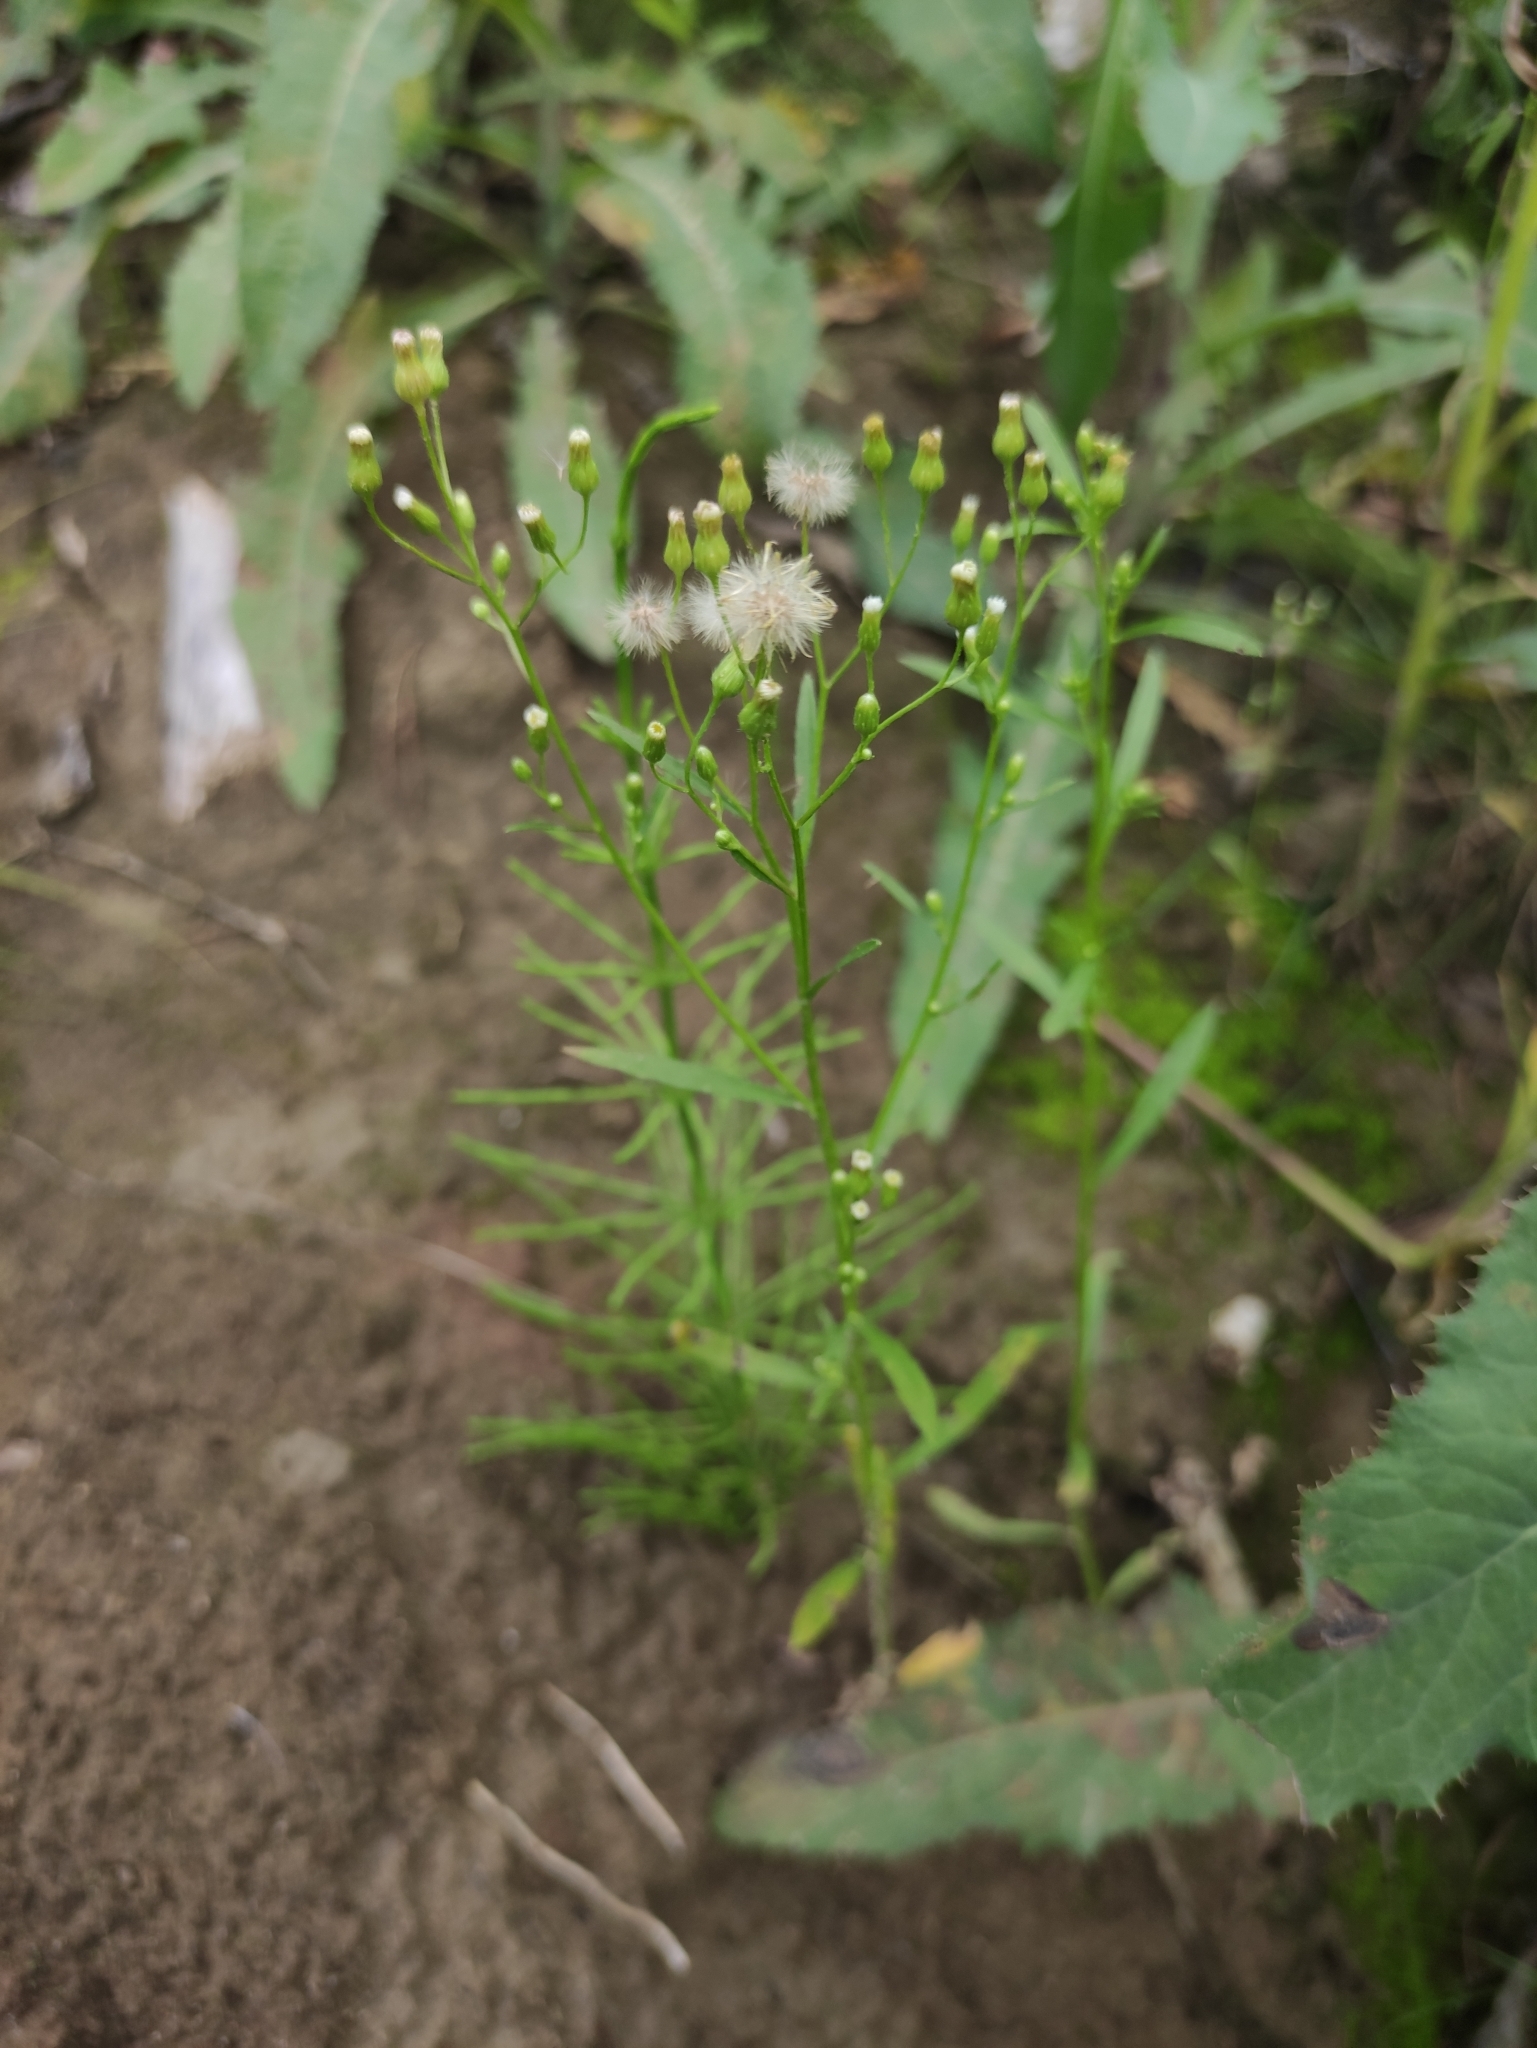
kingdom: Plantae
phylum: Tracheophyta
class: Magnoliopsida
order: Asterales
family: Asteraceae
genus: Erigeron
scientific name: Erigeron canadensis
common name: Canadian fleabane
